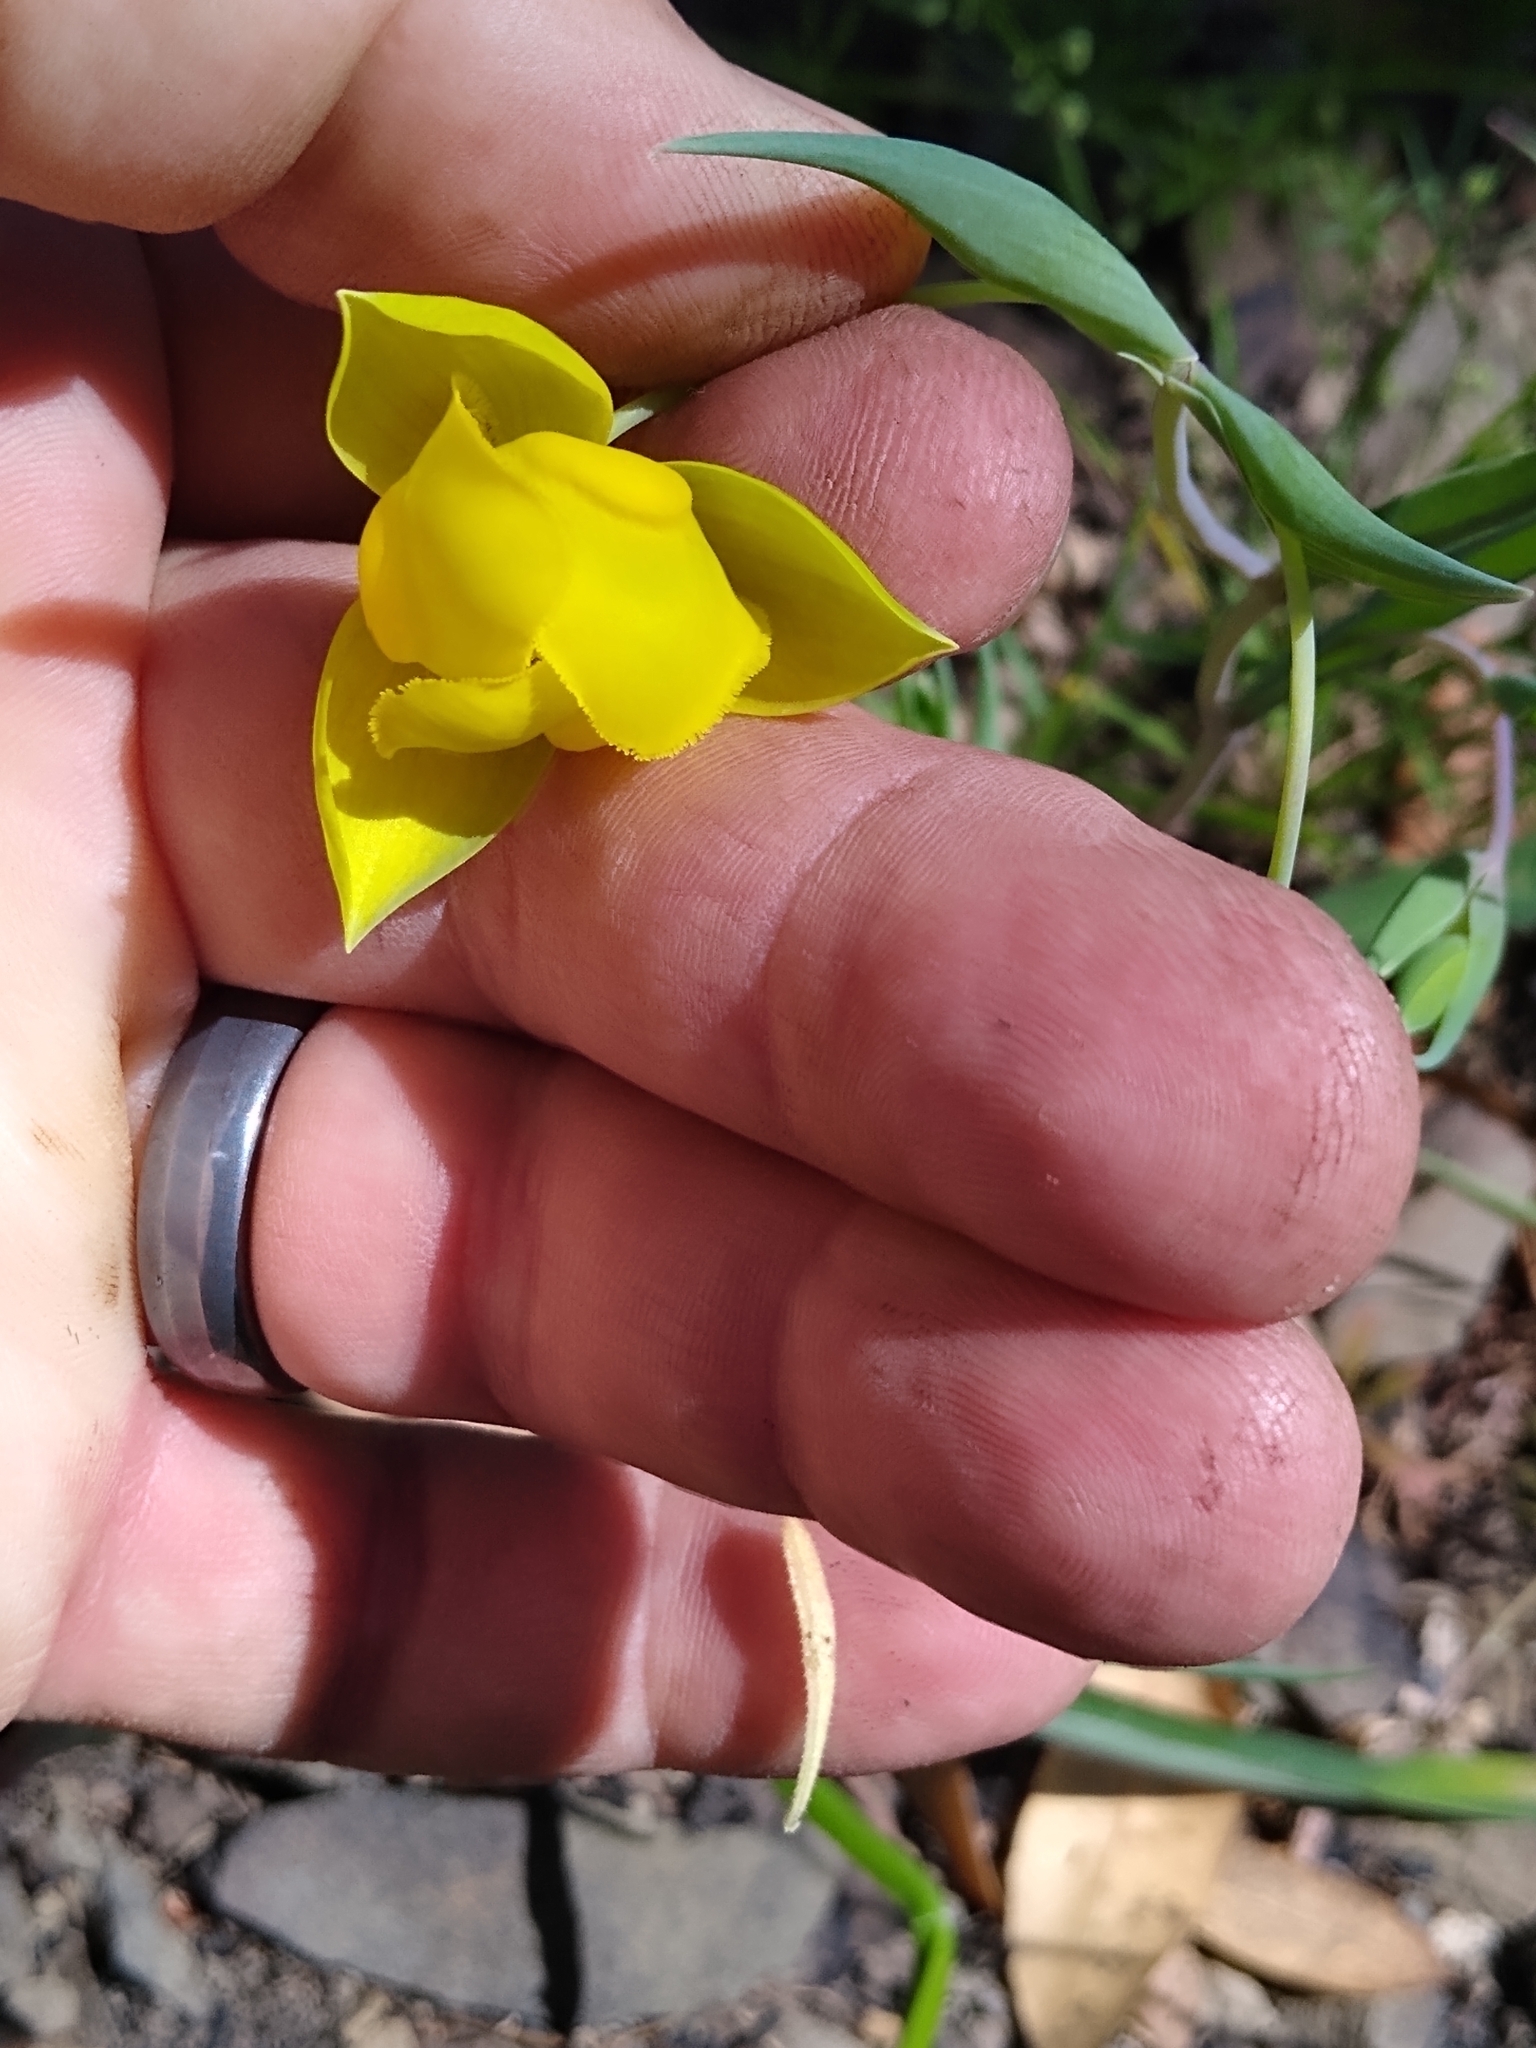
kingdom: Plantae
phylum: Tracheophyta
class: Liliopsida
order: Liliales
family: Liliaceae
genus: Calochortus
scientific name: Calochortus amabilis
